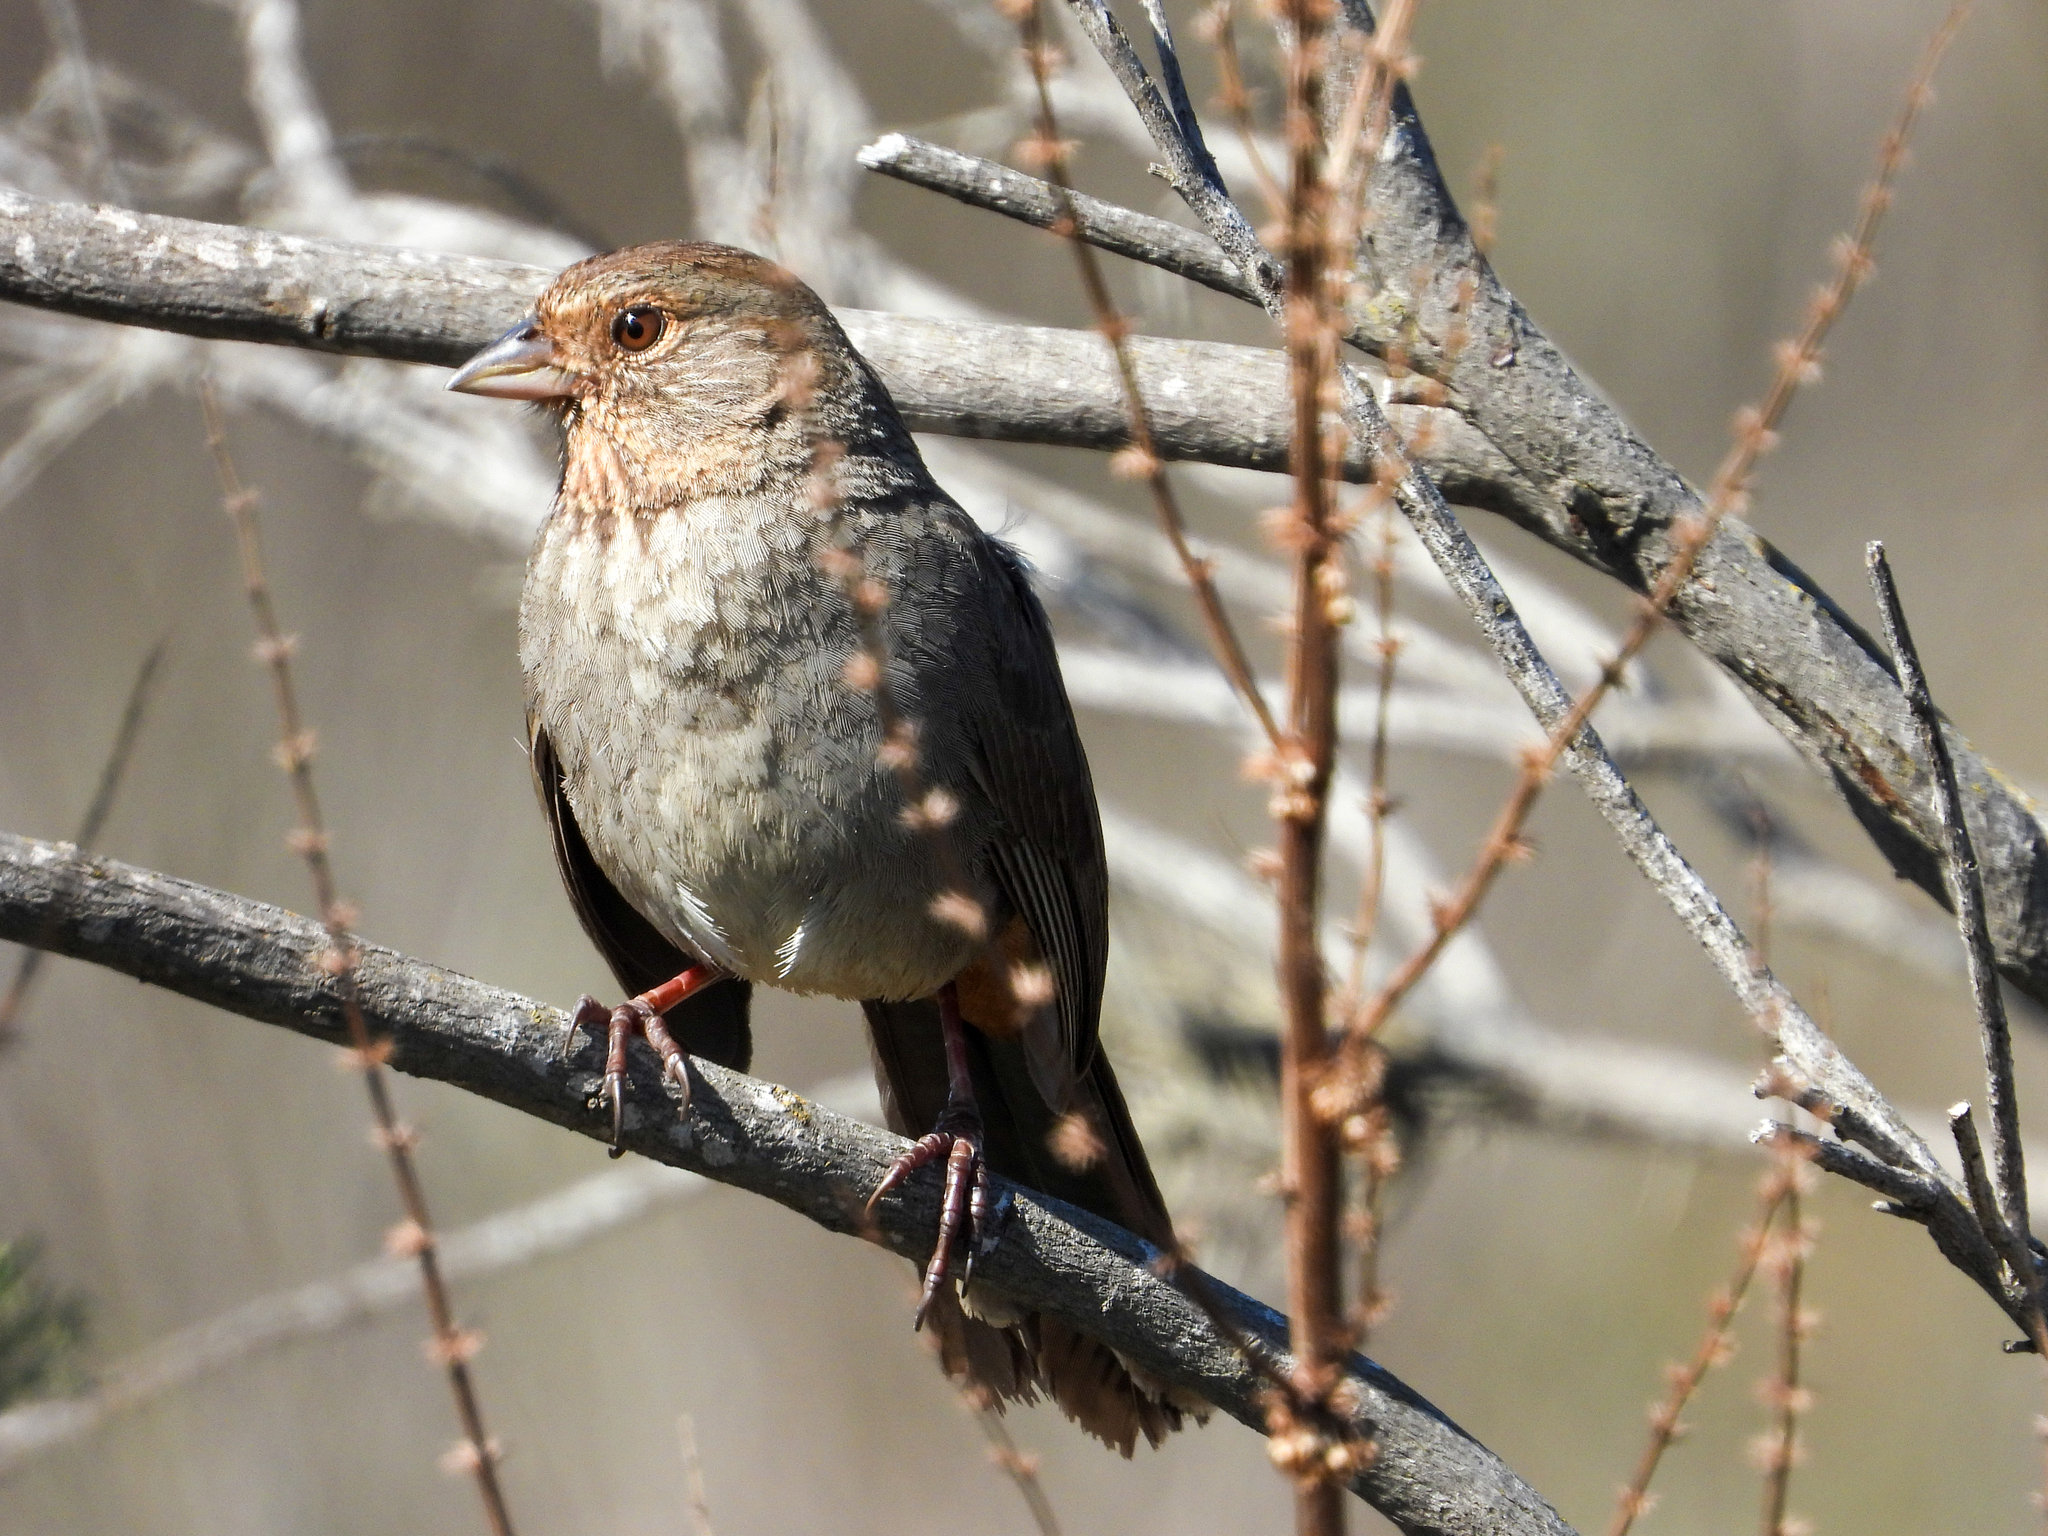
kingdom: Animalia
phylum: Chordata
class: Aves
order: Passeriformes
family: Passerellidae
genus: Melozone
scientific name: Melozone crissalis
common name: California towhee
